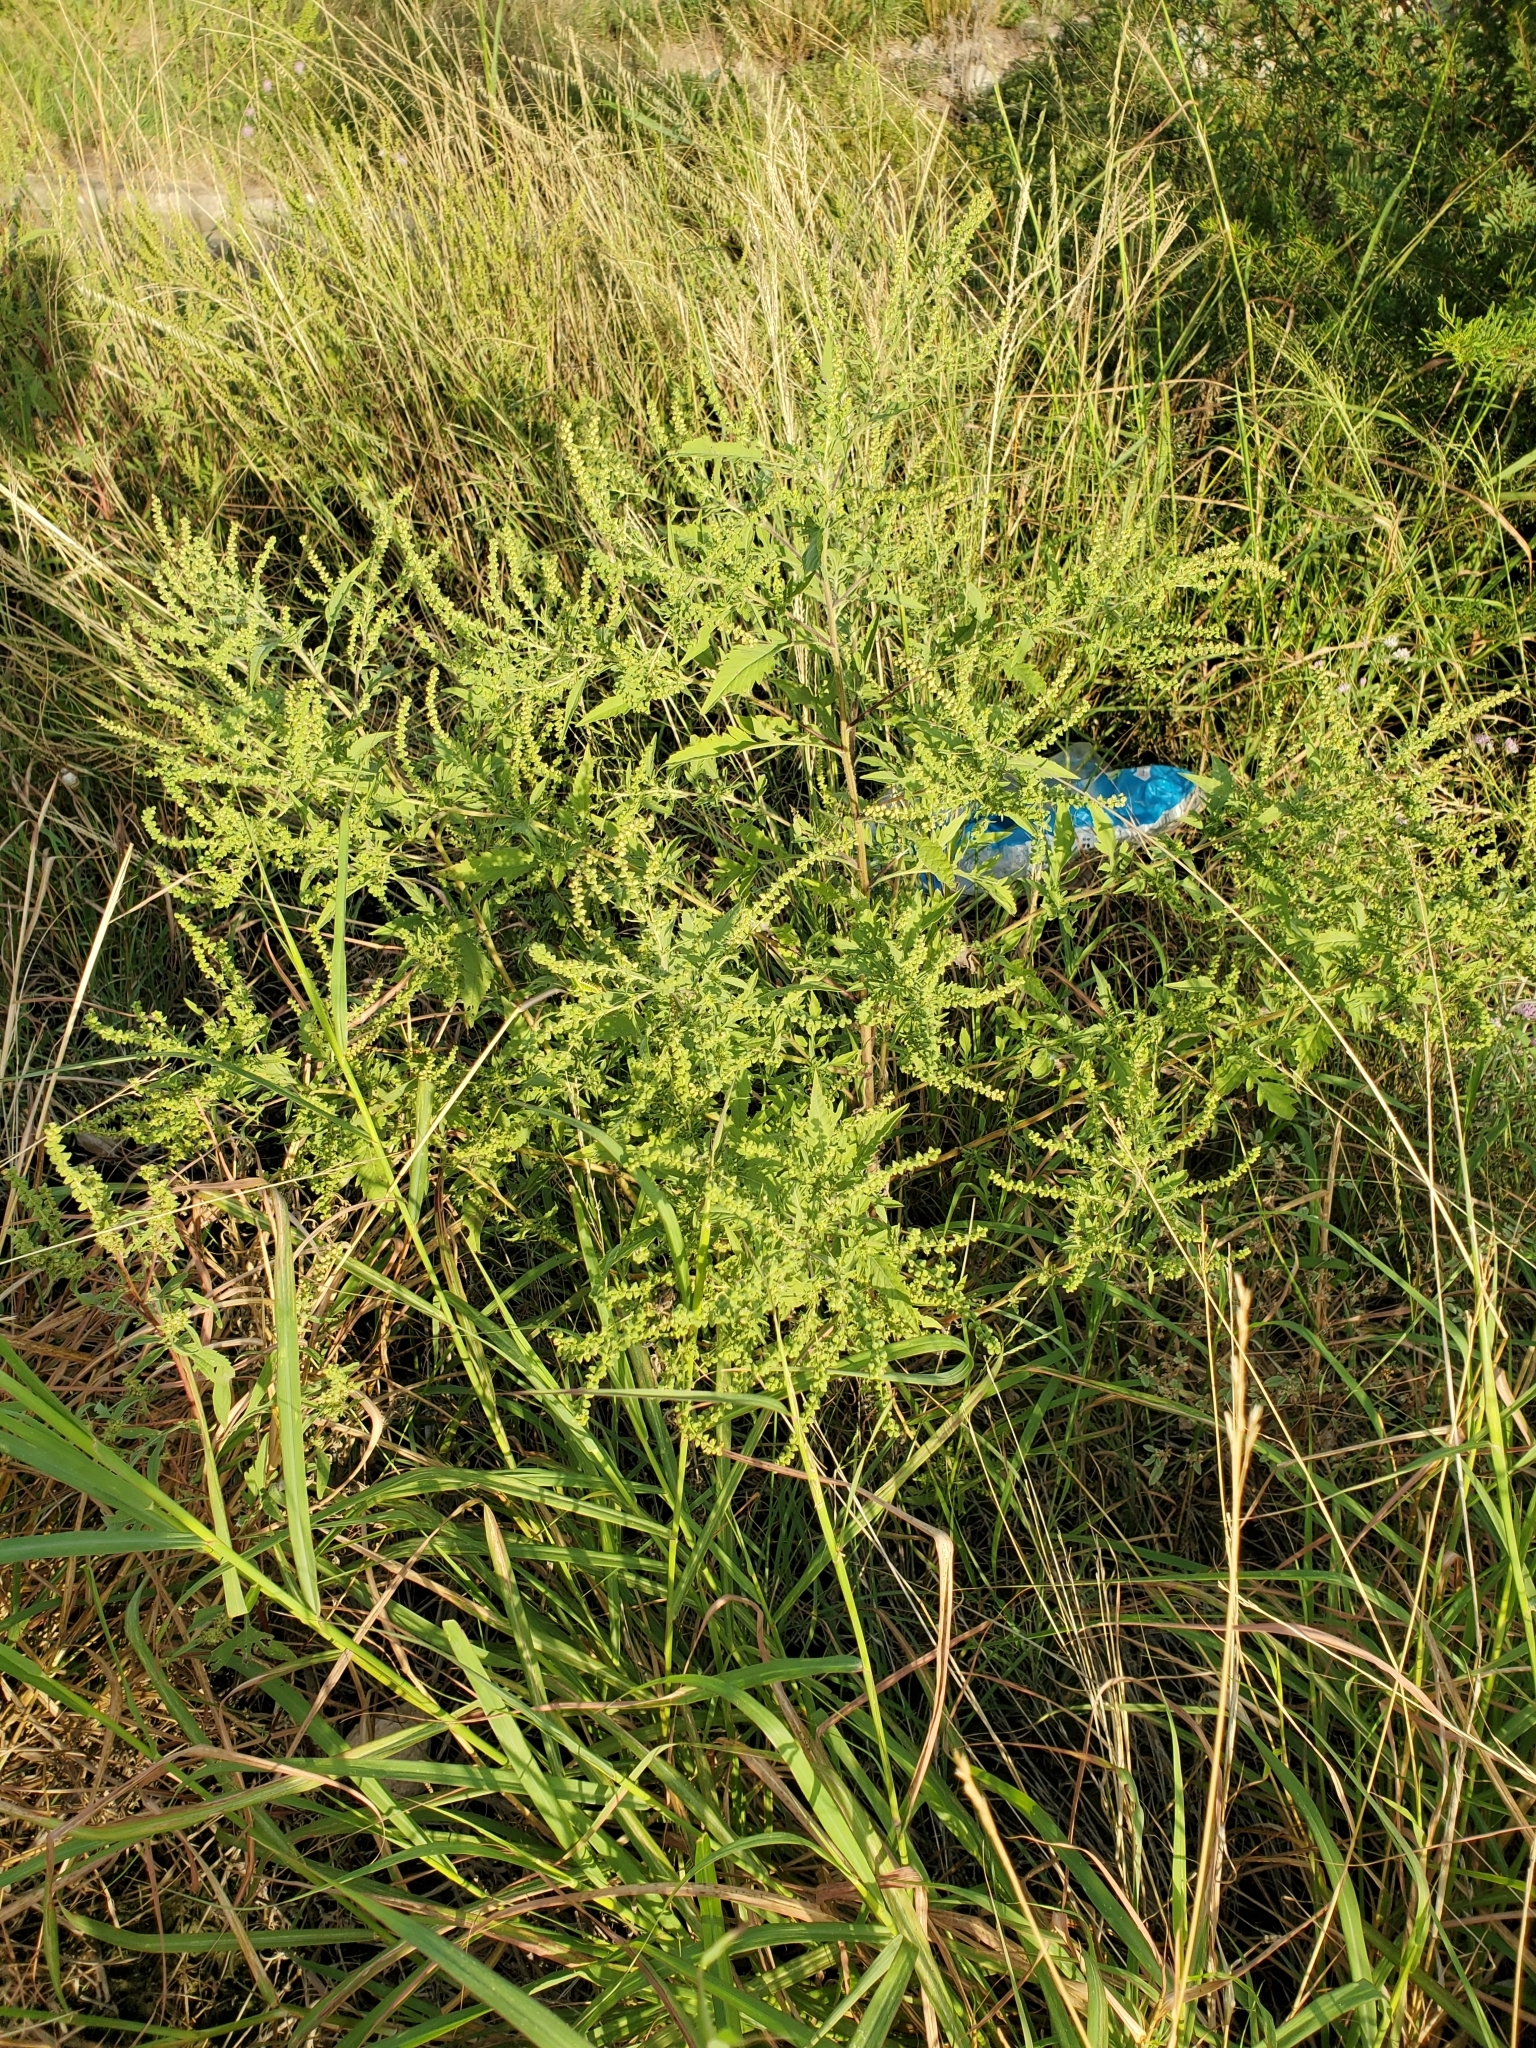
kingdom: Plantae
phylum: Tracheophyta
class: Magnoliopsida
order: Asterales
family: Asteraceae
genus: Ambrosia
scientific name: Ambrosia psilostachya
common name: Perennial ragweed
